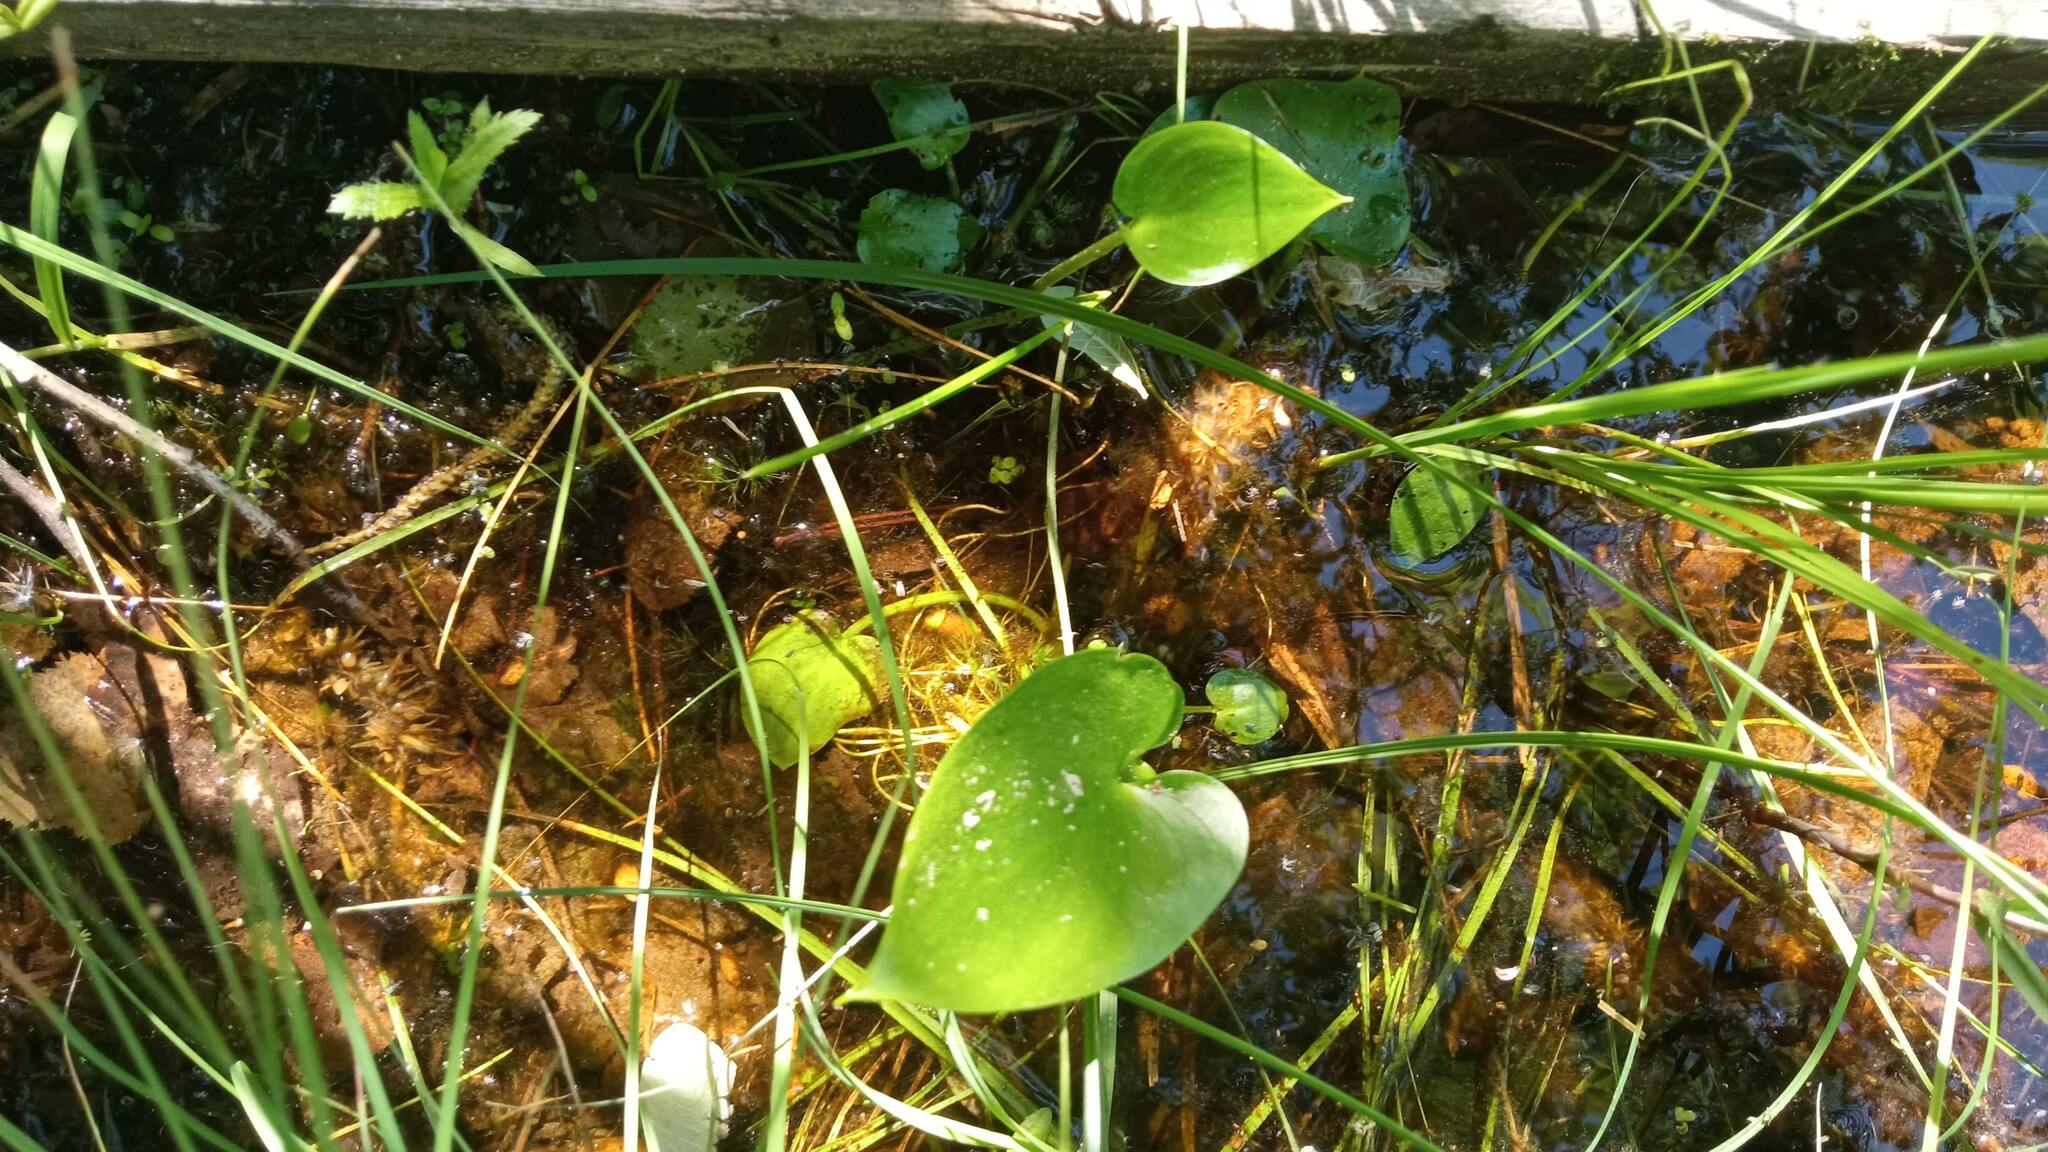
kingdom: Plantae
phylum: Tracheophyta
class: Liliopsida
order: Alismatales
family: Araceae
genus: Calla
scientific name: Calla palustris
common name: Bog arum
